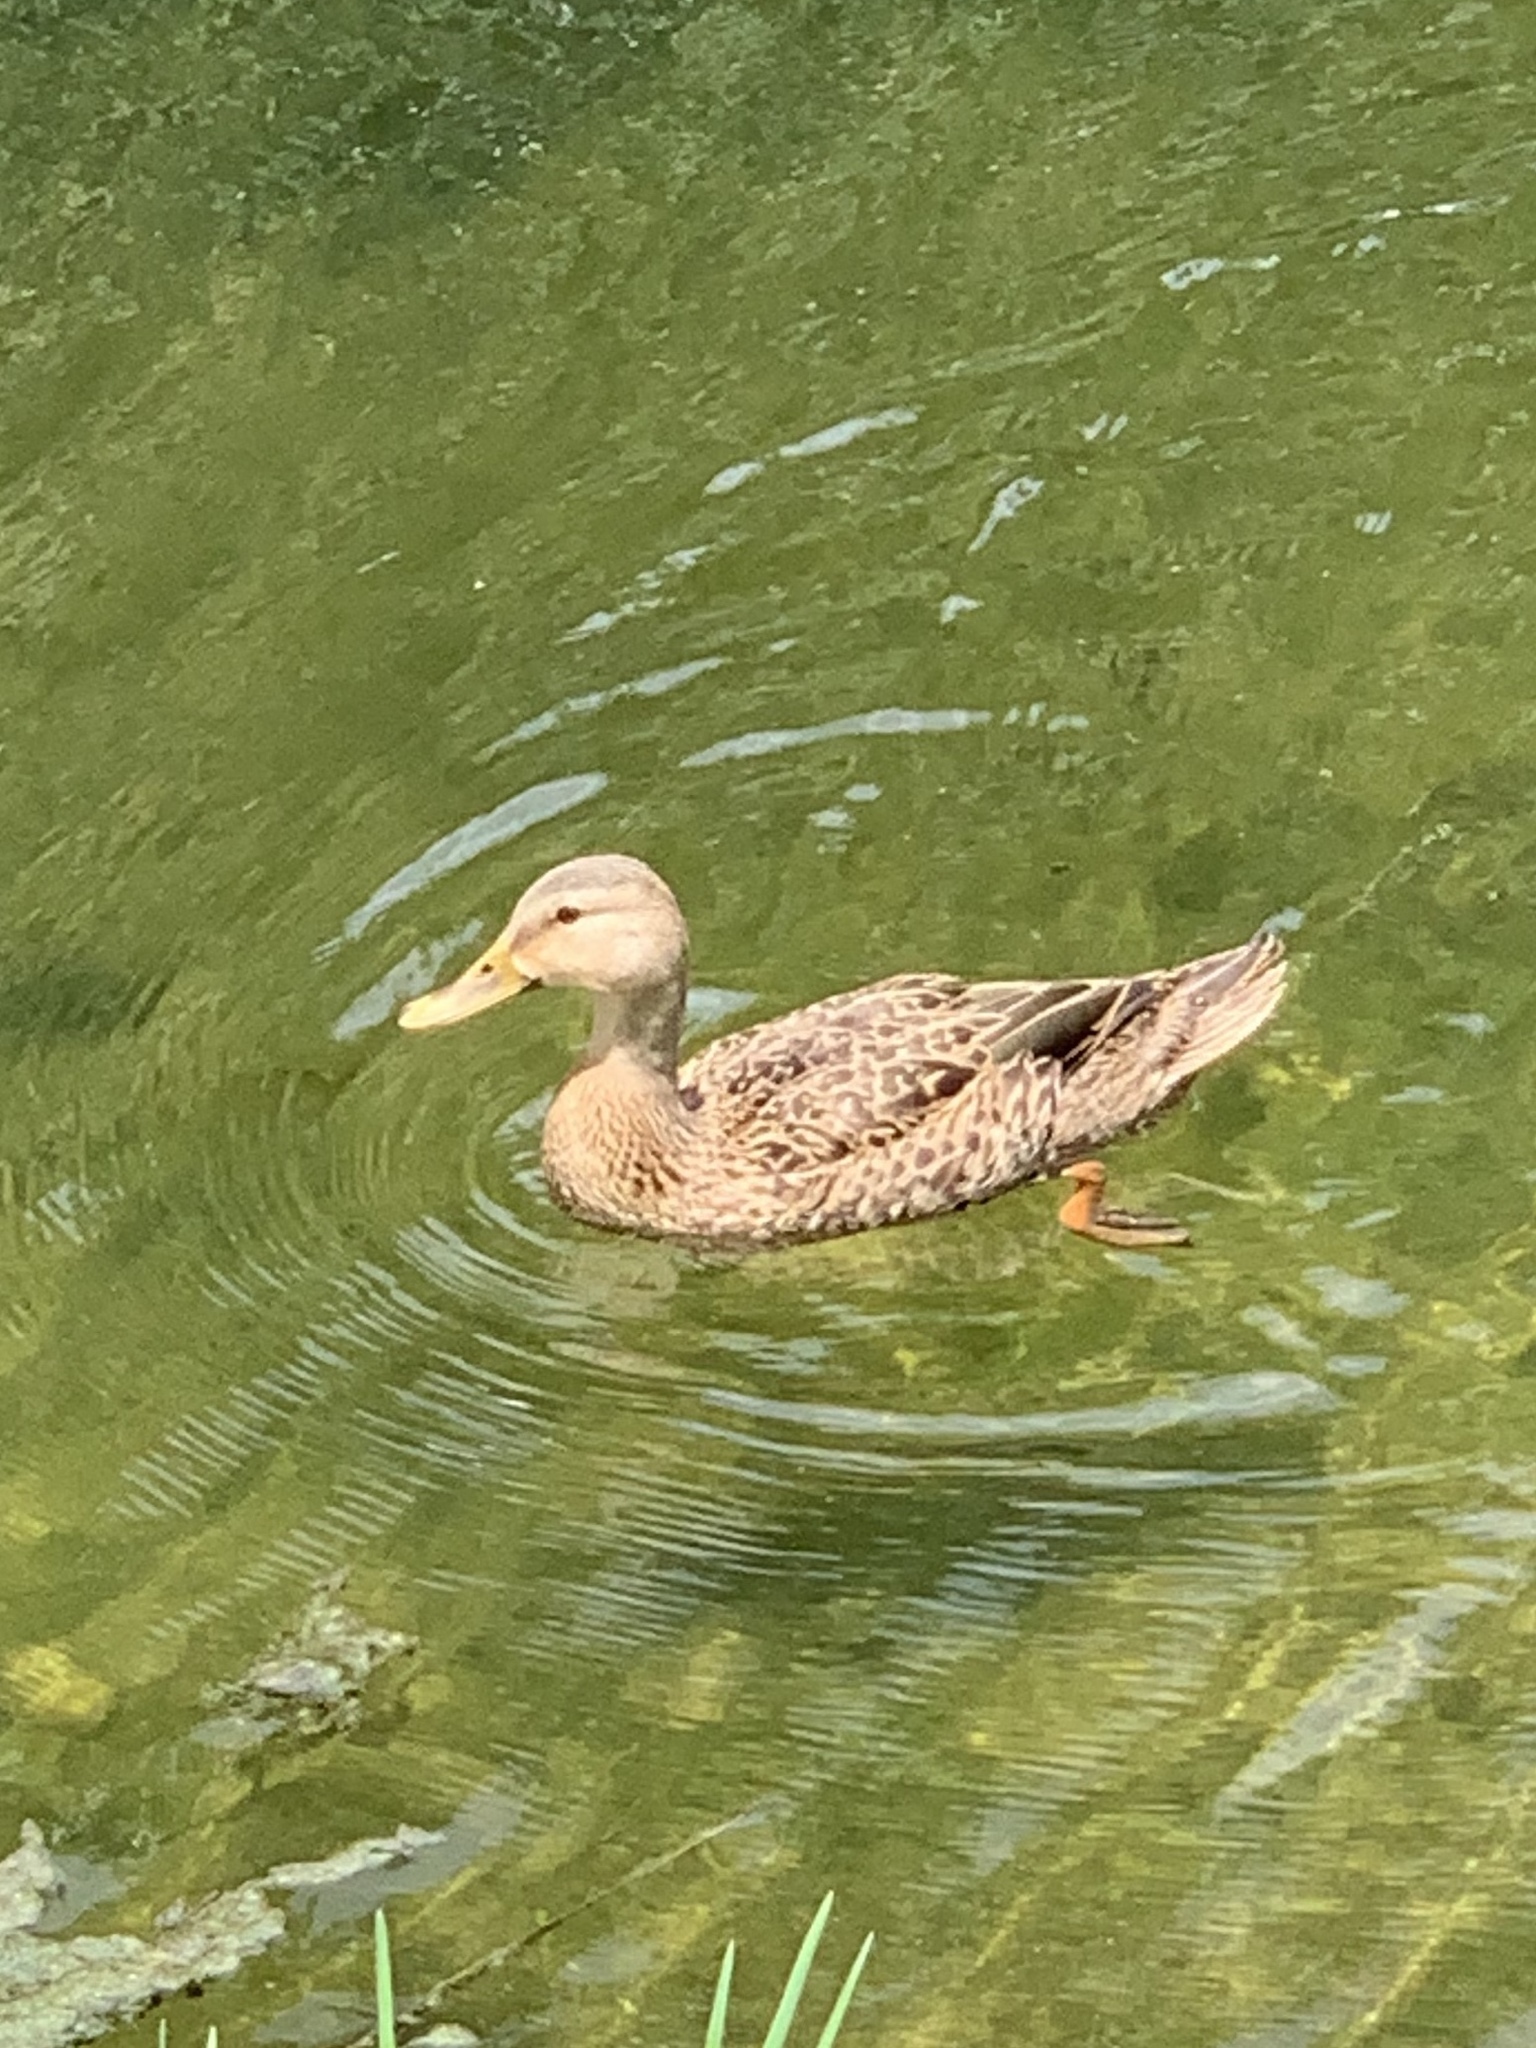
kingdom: Animalia
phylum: Chordata
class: Aves
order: Anseriformes
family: Anatidae
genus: Anas
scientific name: Anas
